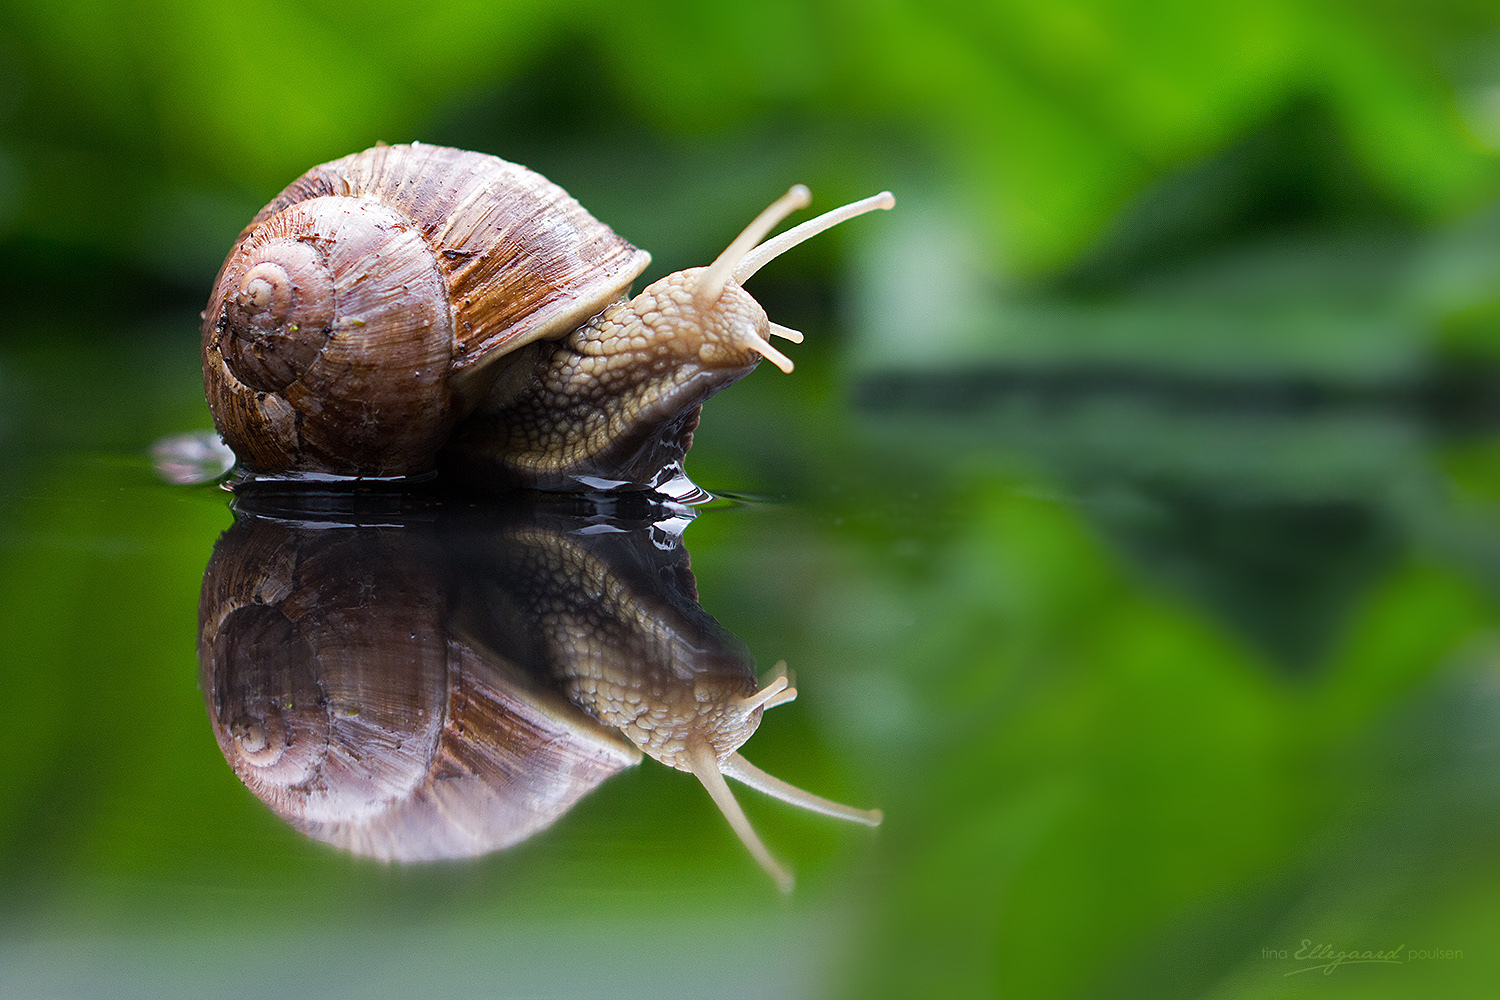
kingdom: Animalia
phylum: Mollusca
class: Gastropoda
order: Stylommatophora
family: Helicidae
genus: Helix
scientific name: Helix pomatia
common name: Roman snail
